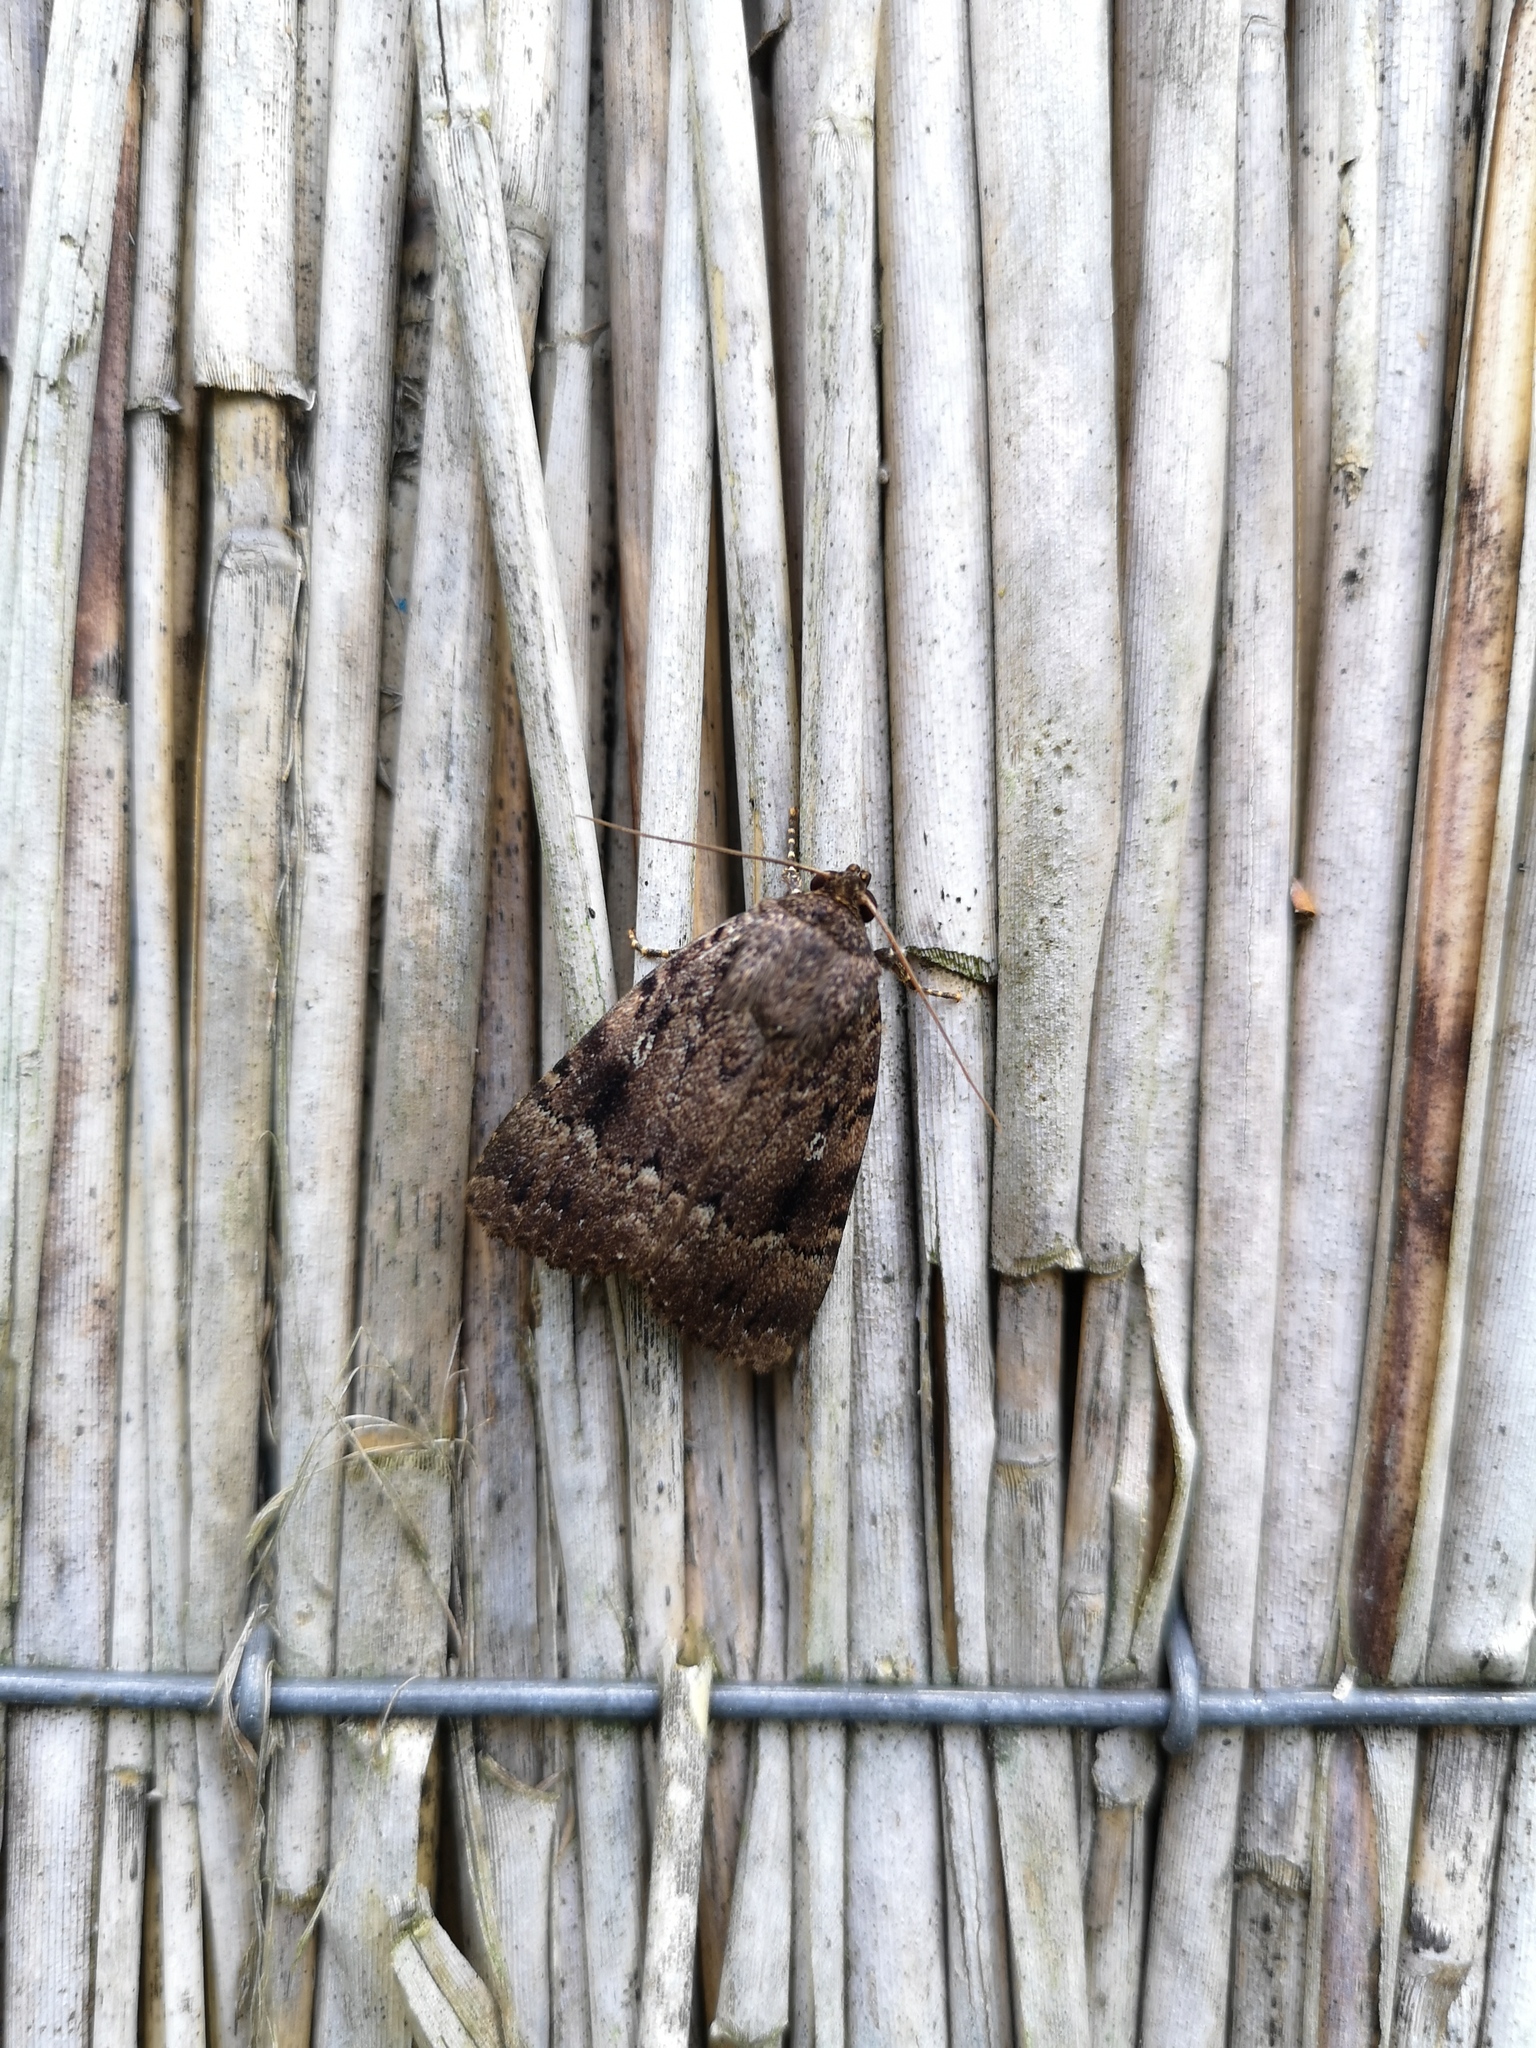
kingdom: Animalia
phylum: Arthropoda
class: Insecta
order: Lepidoptera
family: Noctuidae
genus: Amphipyra
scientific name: Amphipyra pyramidea
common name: Copper underwing
